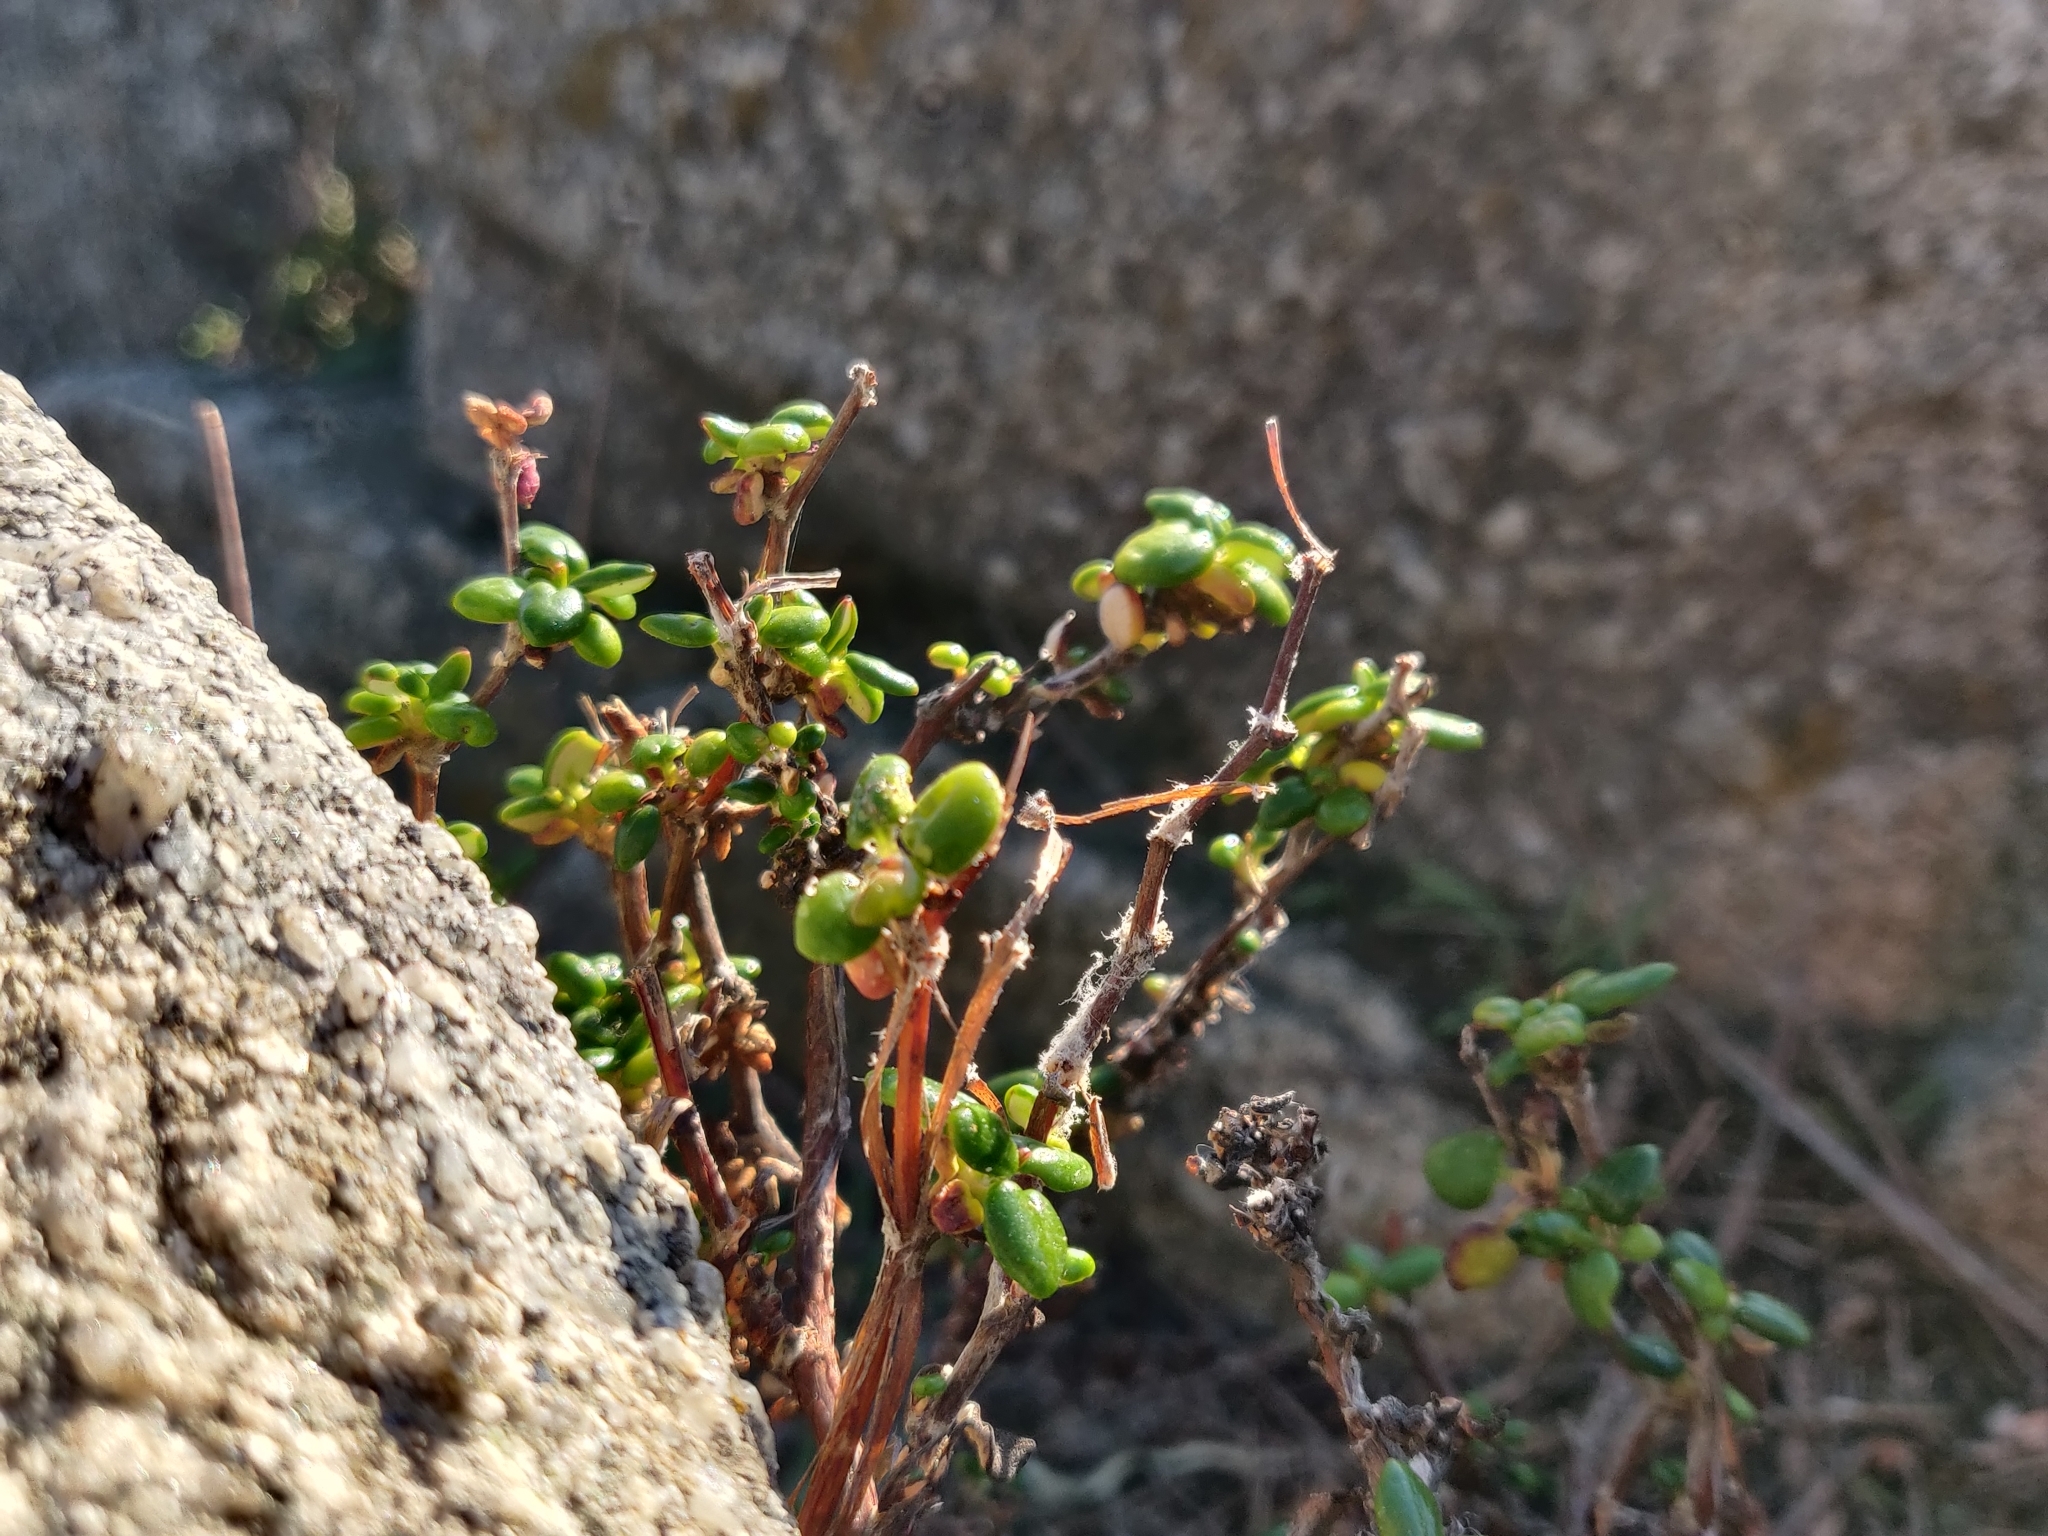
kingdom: Plantae
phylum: Tracheophyta
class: Magnoliopsida
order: Caryophyllales
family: Polygonaceae
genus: Eriogonum
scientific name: Eriogonum parvifolium
